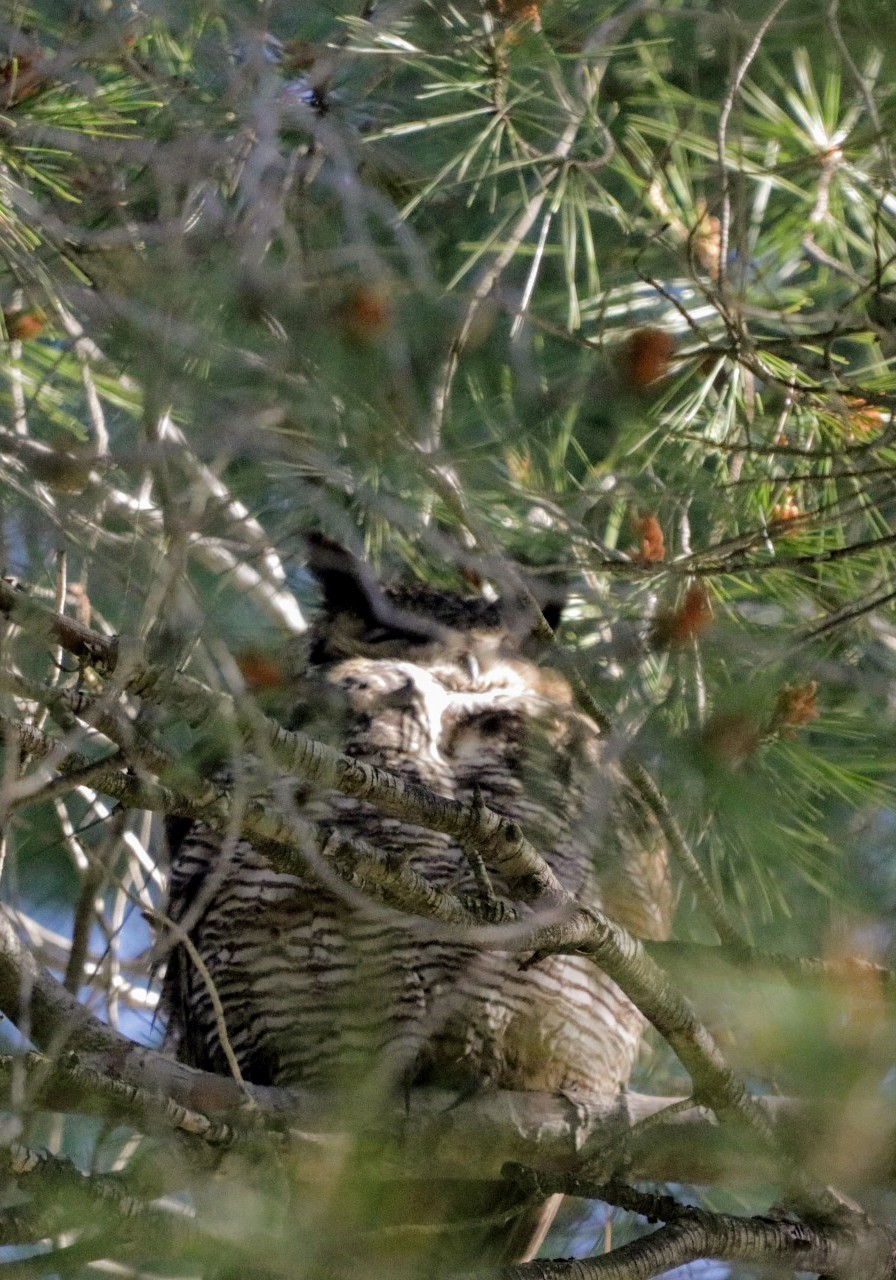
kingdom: Animalia
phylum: Chordata
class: Aves
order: Strigiformes
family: Strigidae
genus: Bubo
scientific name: Bubo virginianus
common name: Great horned owl
